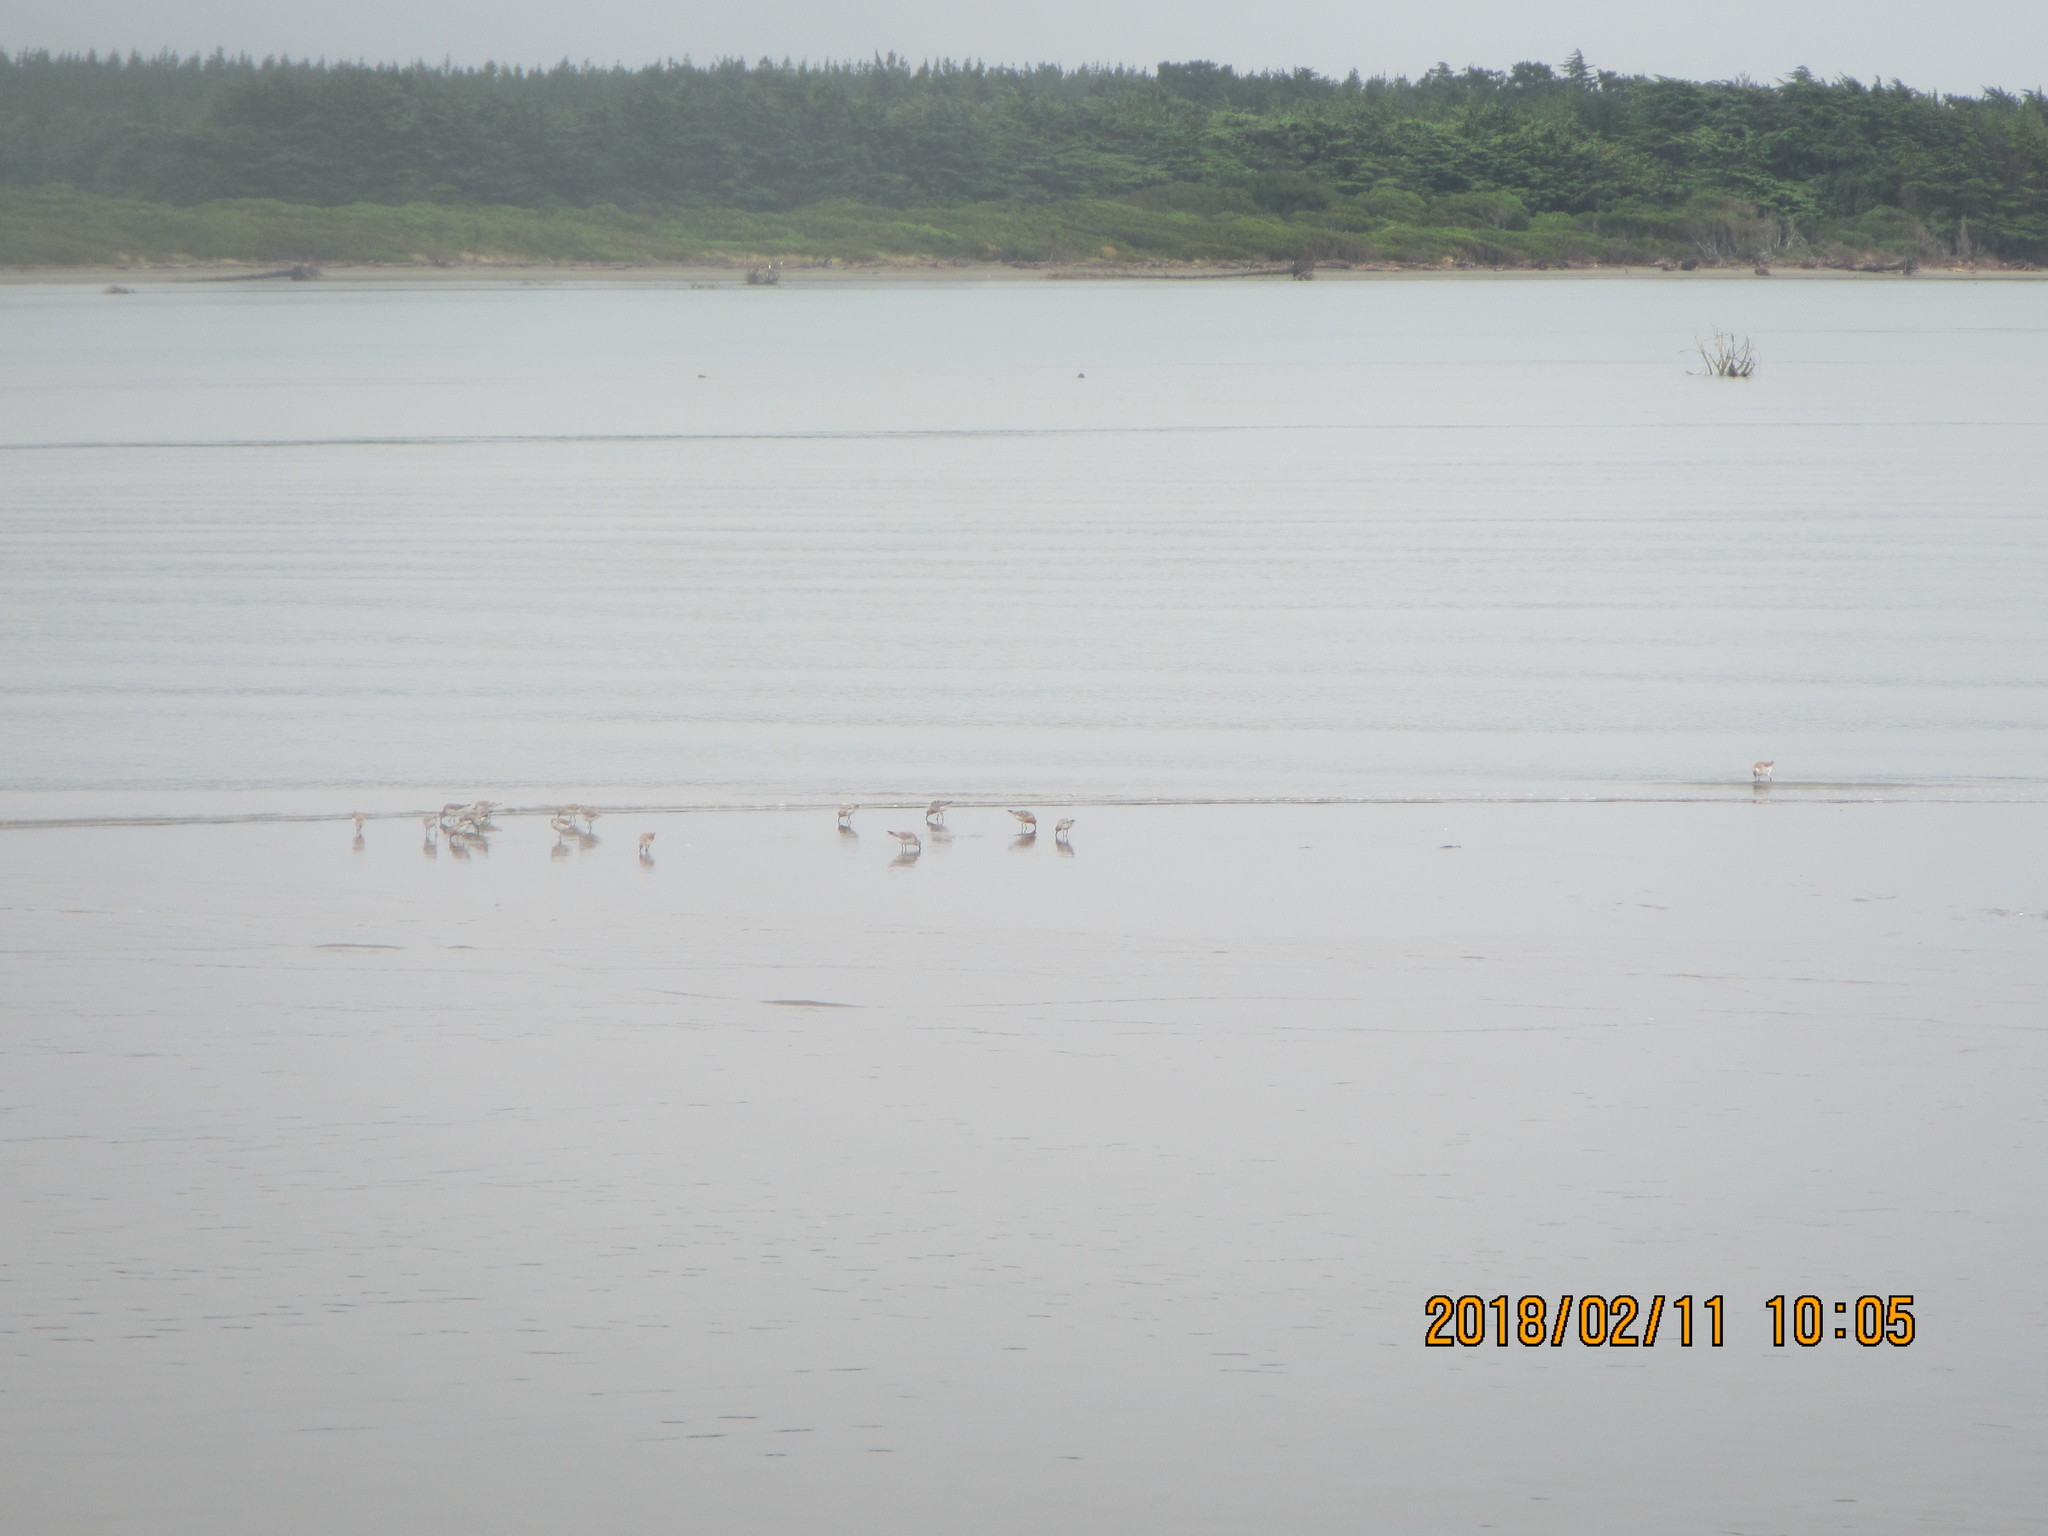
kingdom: Animalia
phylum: Chordata
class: Aves
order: Charadriiformes
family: Scolopacidae
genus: Calidris
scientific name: Calidris canutus
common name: Red knot
